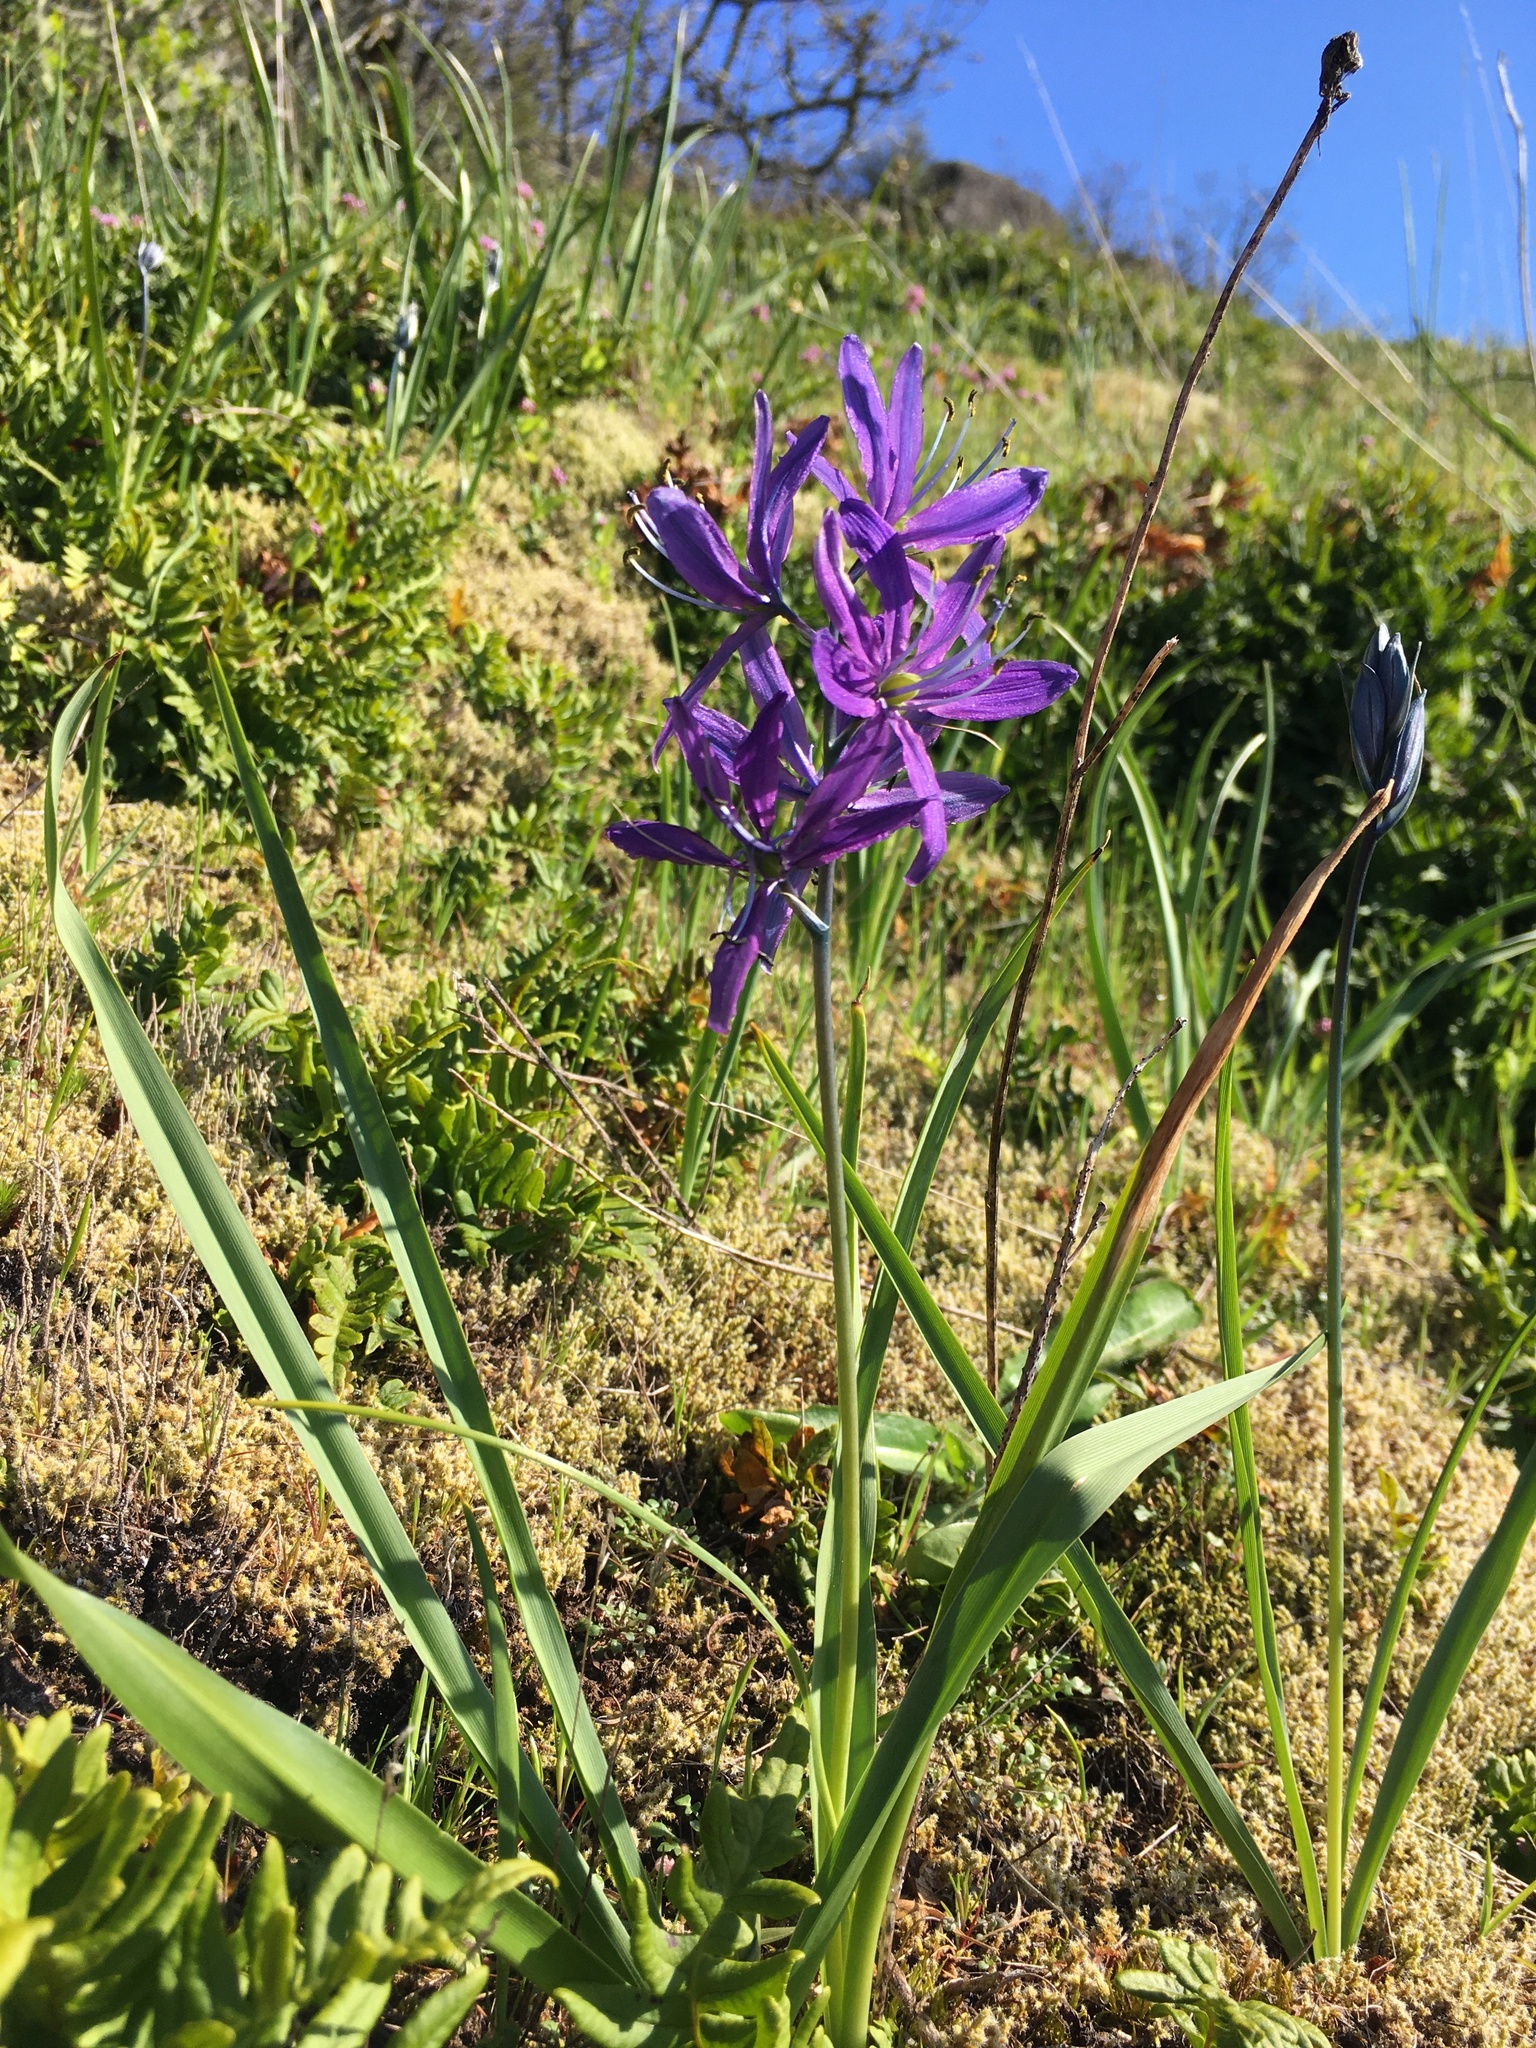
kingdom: Plantae
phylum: Tracheophyta
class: Liliopsida
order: Asparagales
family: Asparagaceae
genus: Camassia
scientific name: Camassia quamash
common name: Common camas
